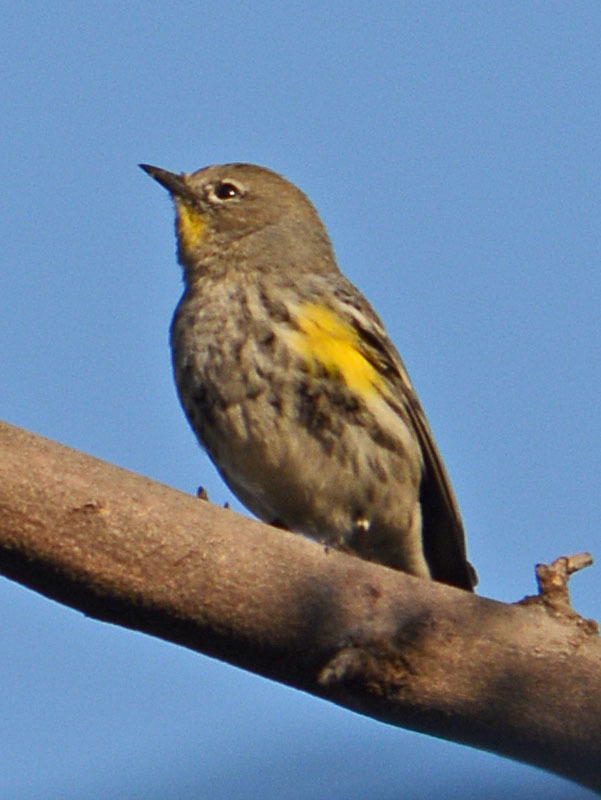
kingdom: Animalia
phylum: Chordata
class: Aves
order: Passeriformes
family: Parulidae
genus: Setophaga
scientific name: Setophaga auduboni
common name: Audubon's warbler
